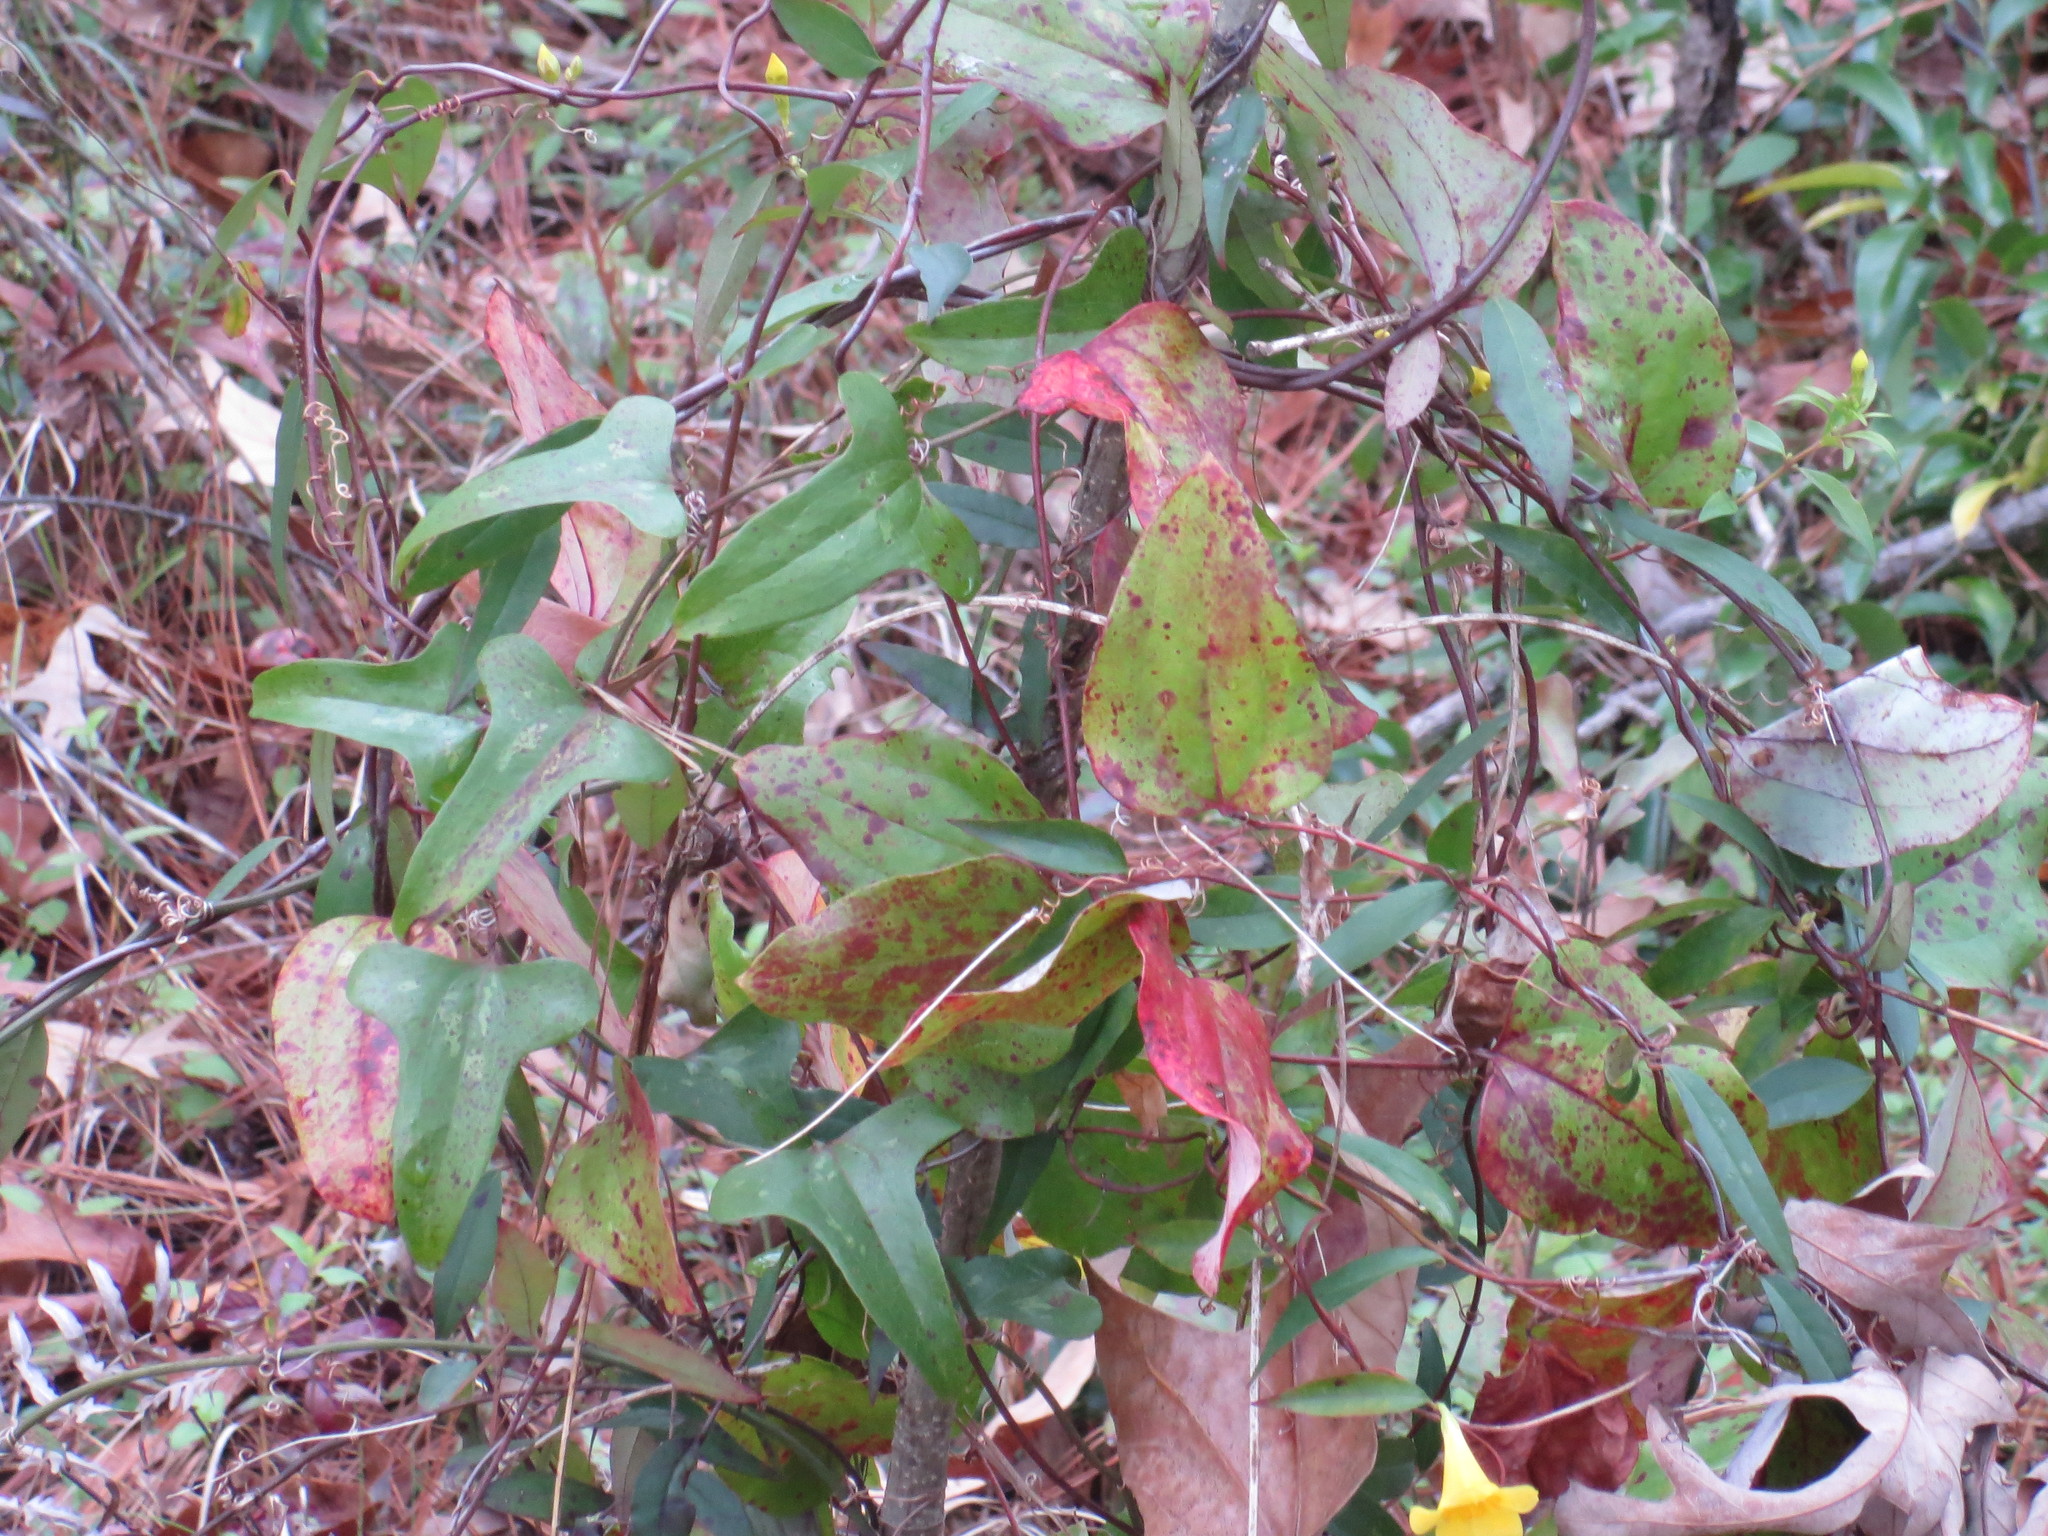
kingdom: Plantae
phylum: Tracheophyta
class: Liliopsida
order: Liliales
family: Smilacaceae
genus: Smilax
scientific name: Smilax bona-nox
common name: Catbrier
